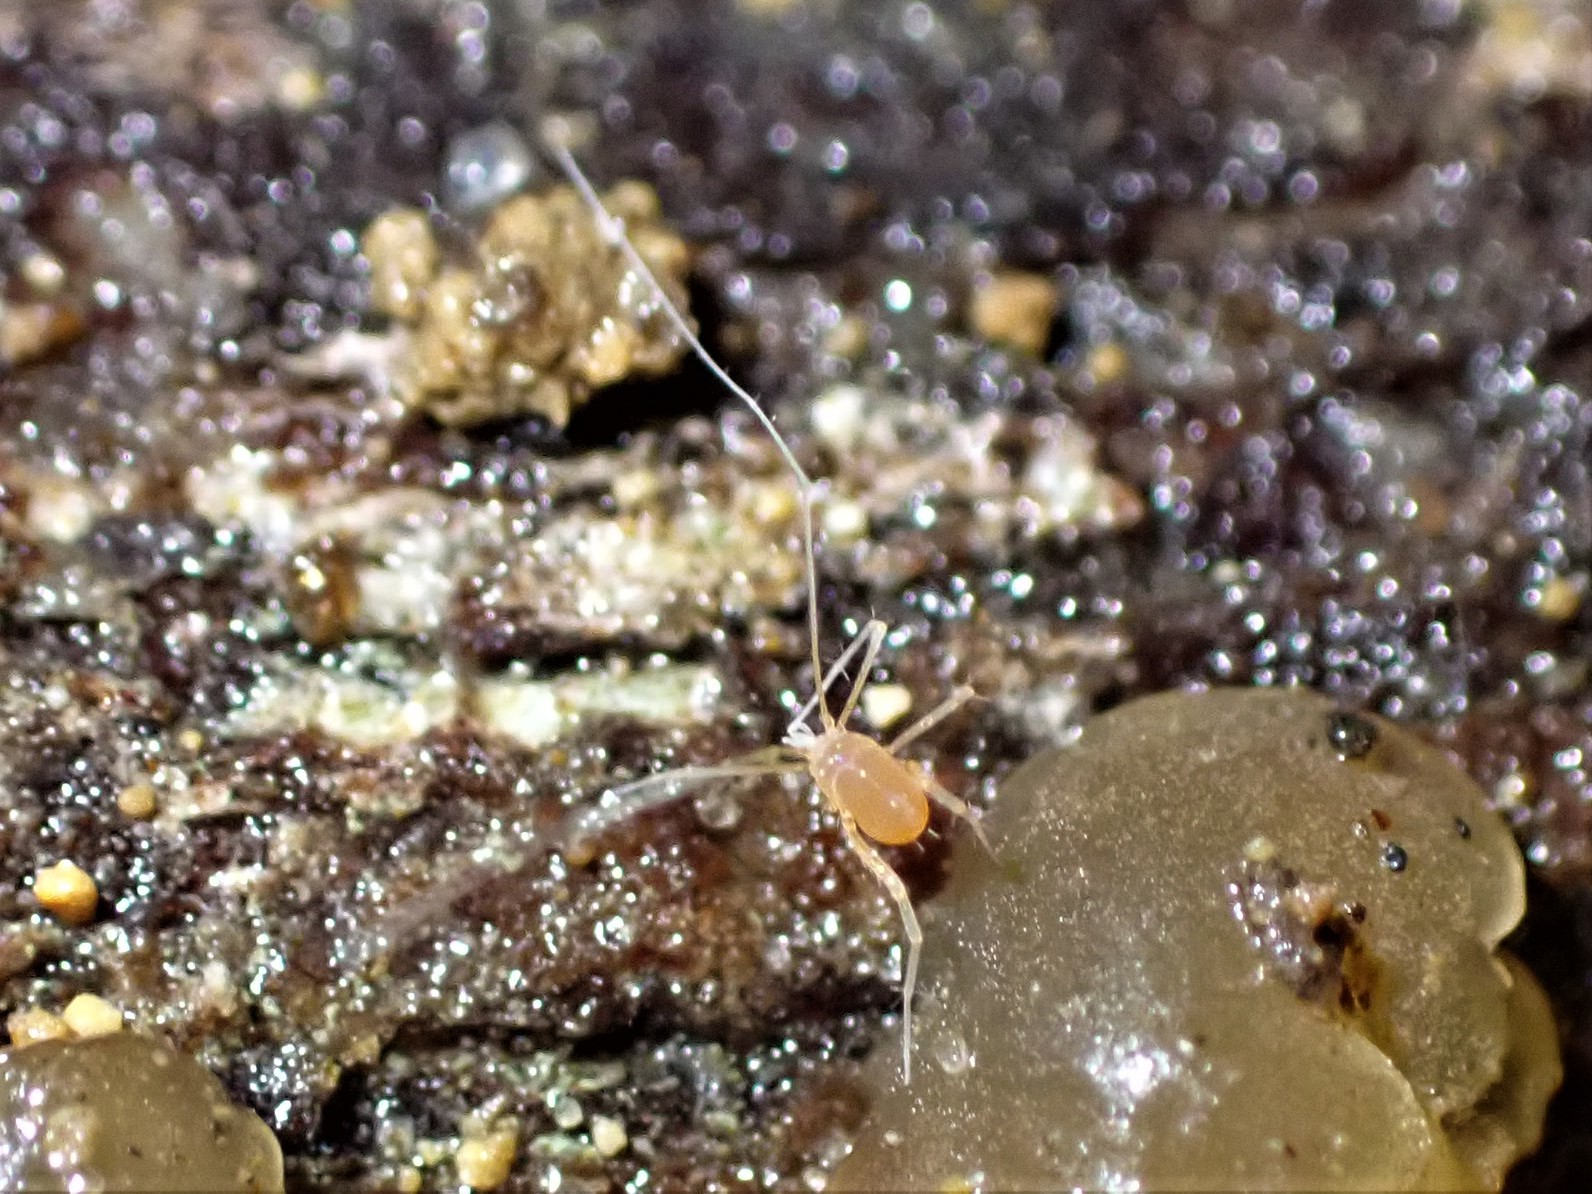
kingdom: Animalia
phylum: Arthropoda
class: Arachnida
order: Trombidiformes
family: Eupodidae
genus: Linopodes
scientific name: Linopodes
